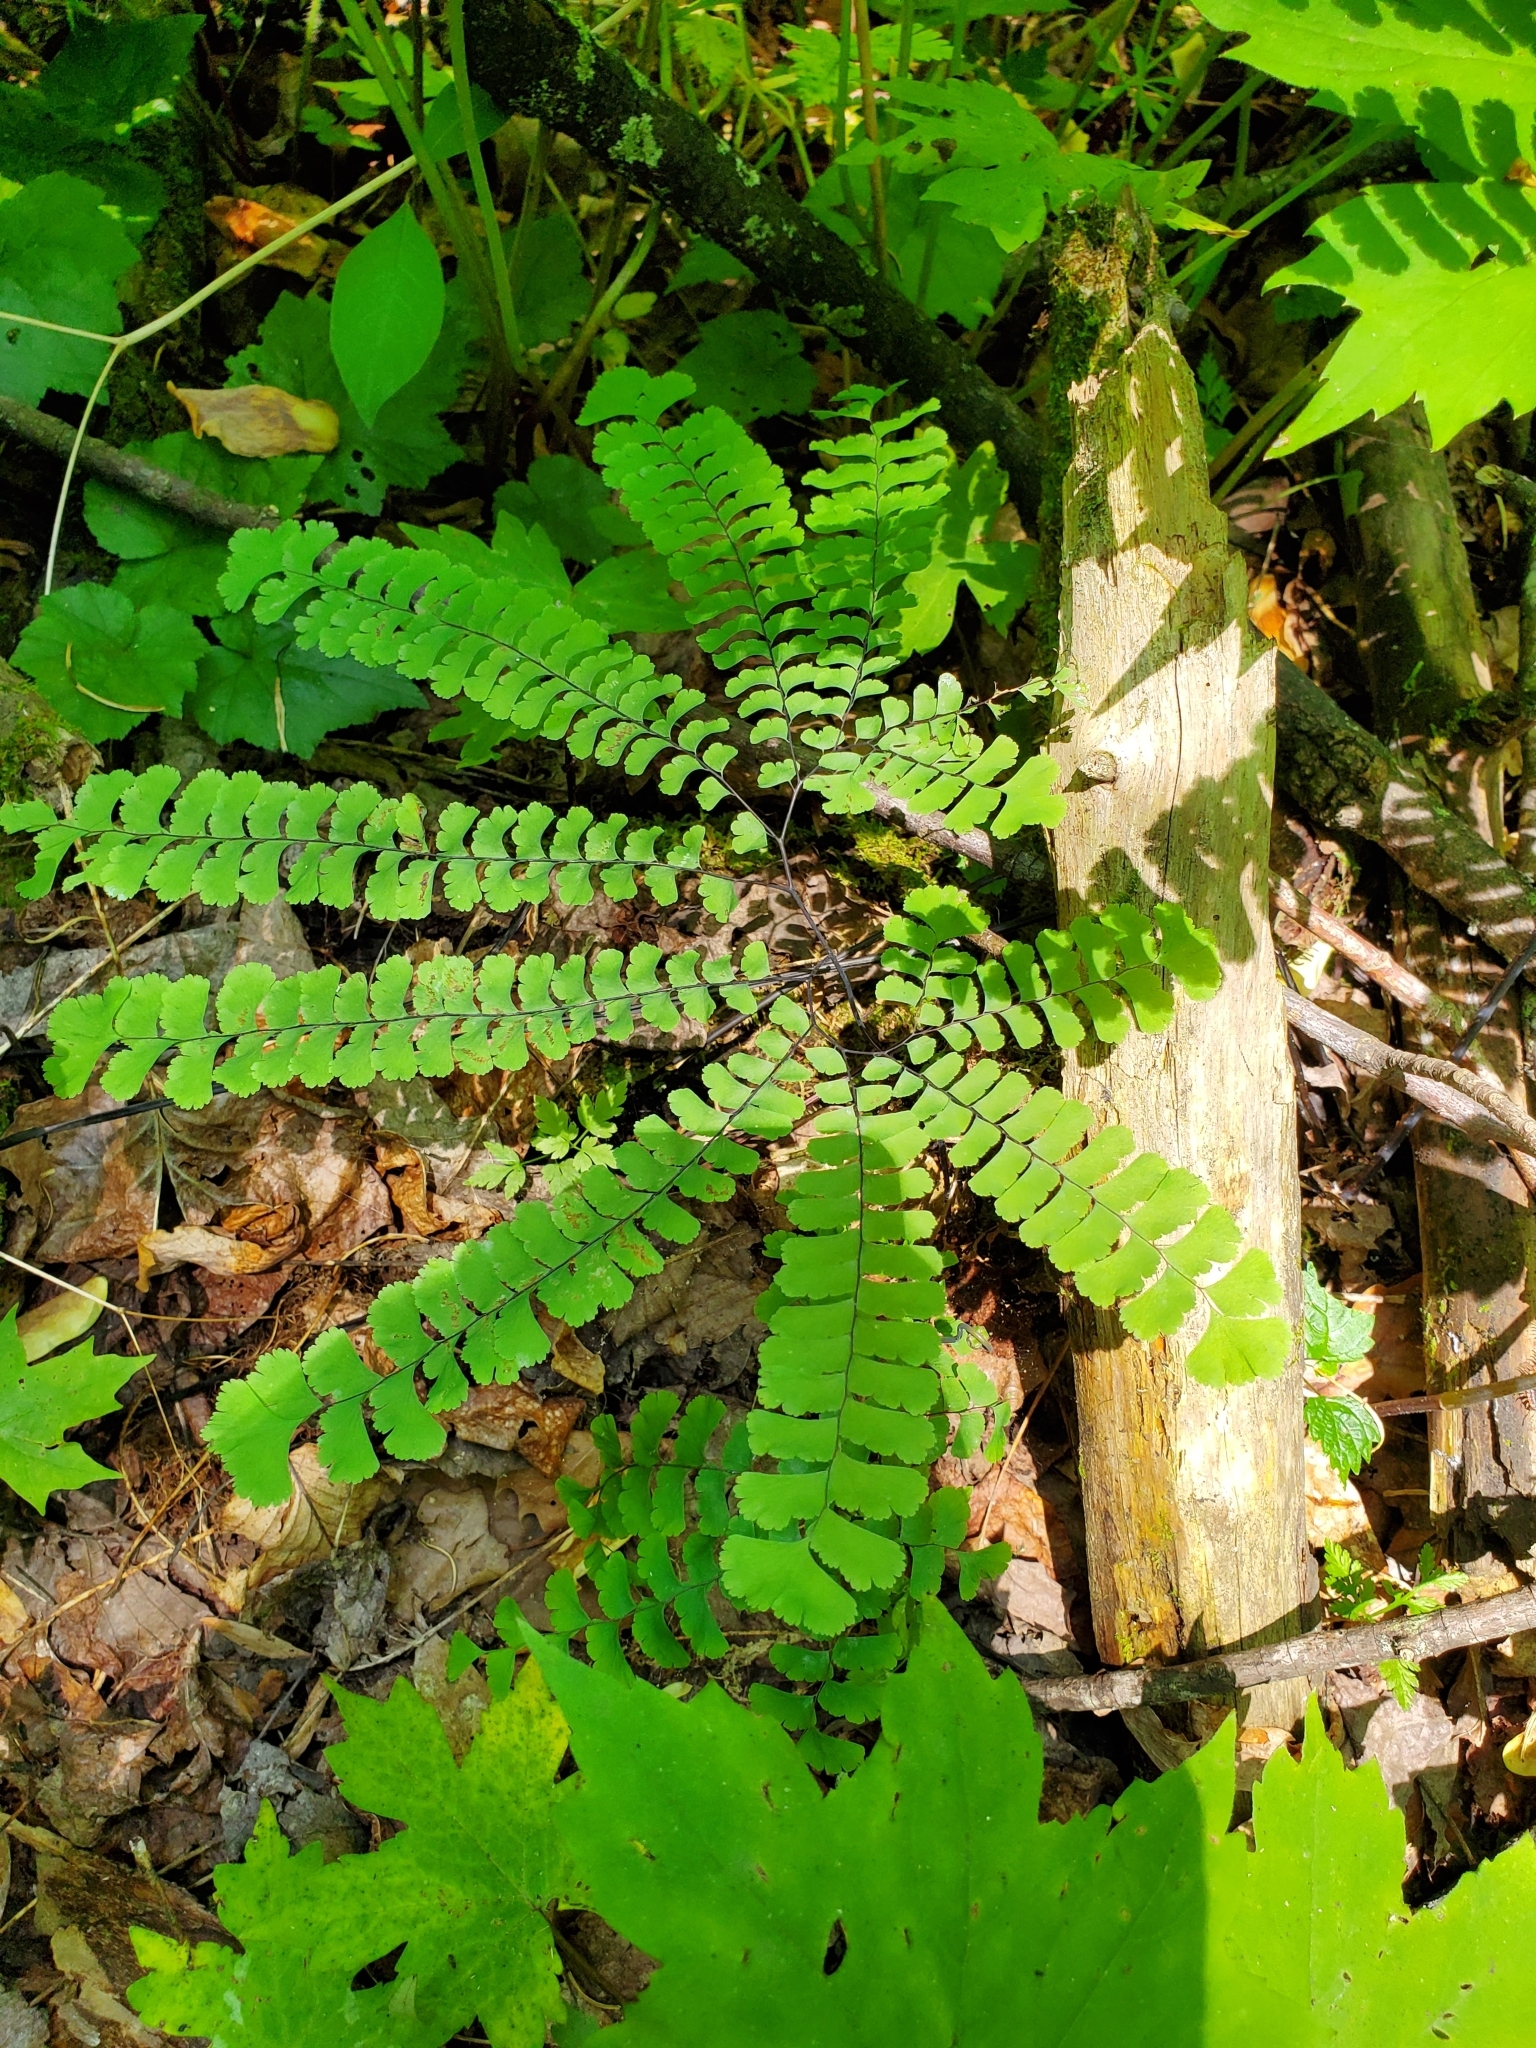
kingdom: Plantae
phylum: Tracheophyta
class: Polypodiopsida
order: Polypodiales
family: Pteridaceae
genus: Adiantum
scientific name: Adiantum pedatum
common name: Five-finger fern
